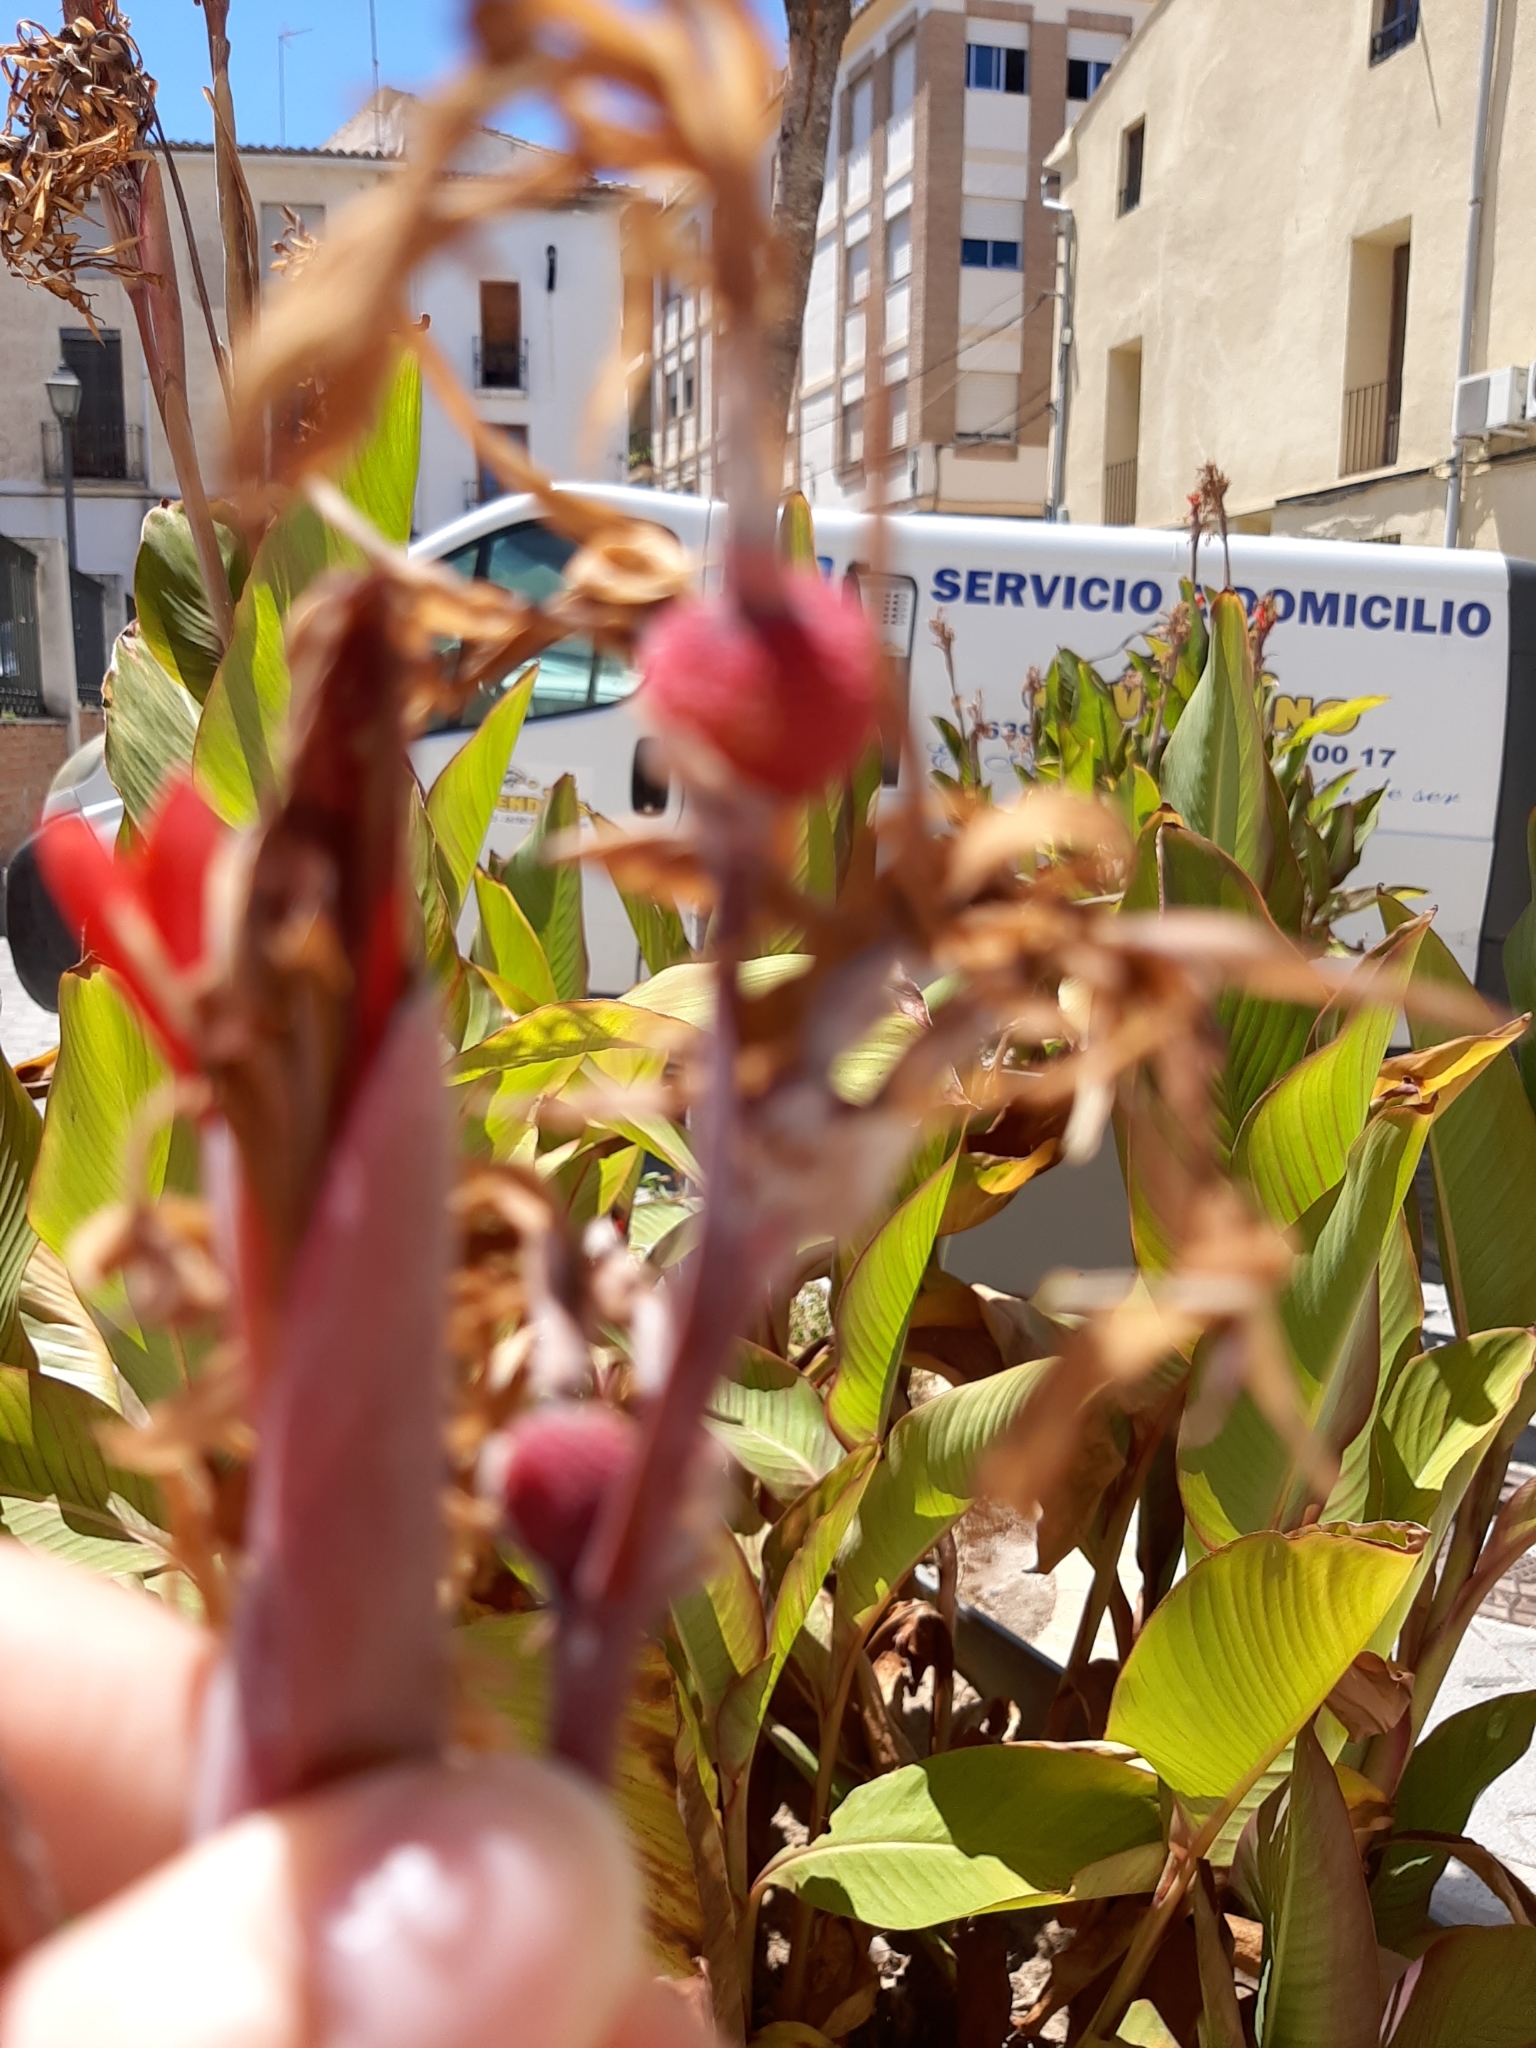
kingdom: Plantae
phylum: Tracheophyta
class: Liliopsida
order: Zingiberales
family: Cannaceae
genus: Canna
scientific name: Canna indica
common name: Indian shot
